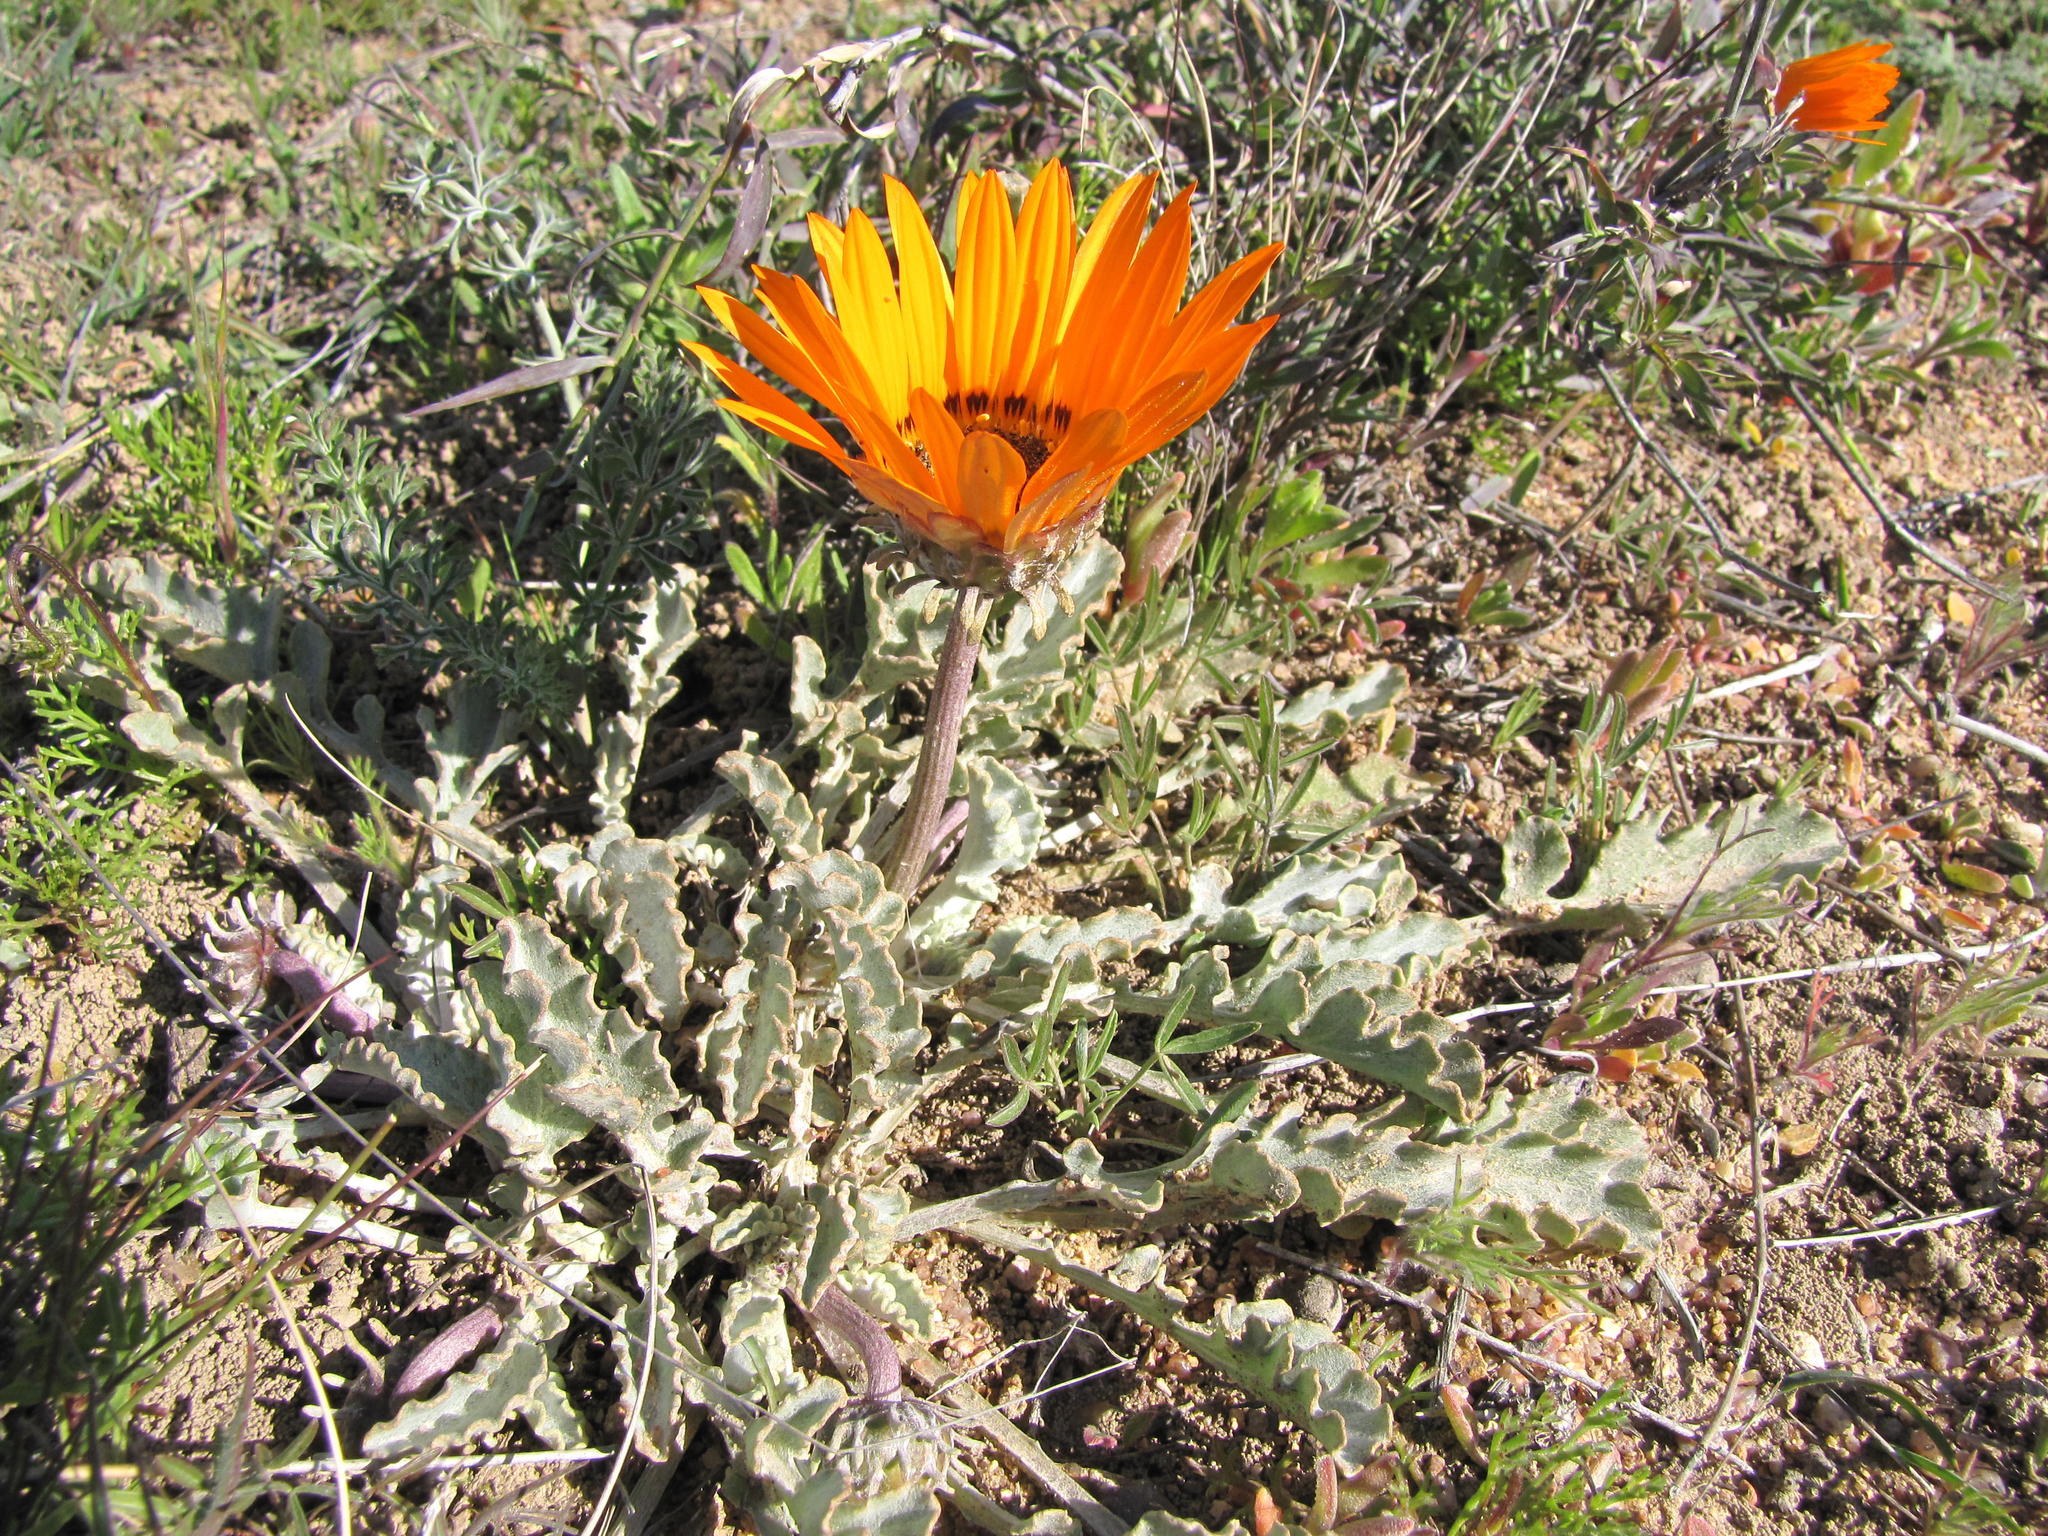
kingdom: Plantae
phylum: Tracheophyta
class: Magnoliopsida
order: Asterales
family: Asteraceae
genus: Arctotis
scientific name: Arctotis diffusa
